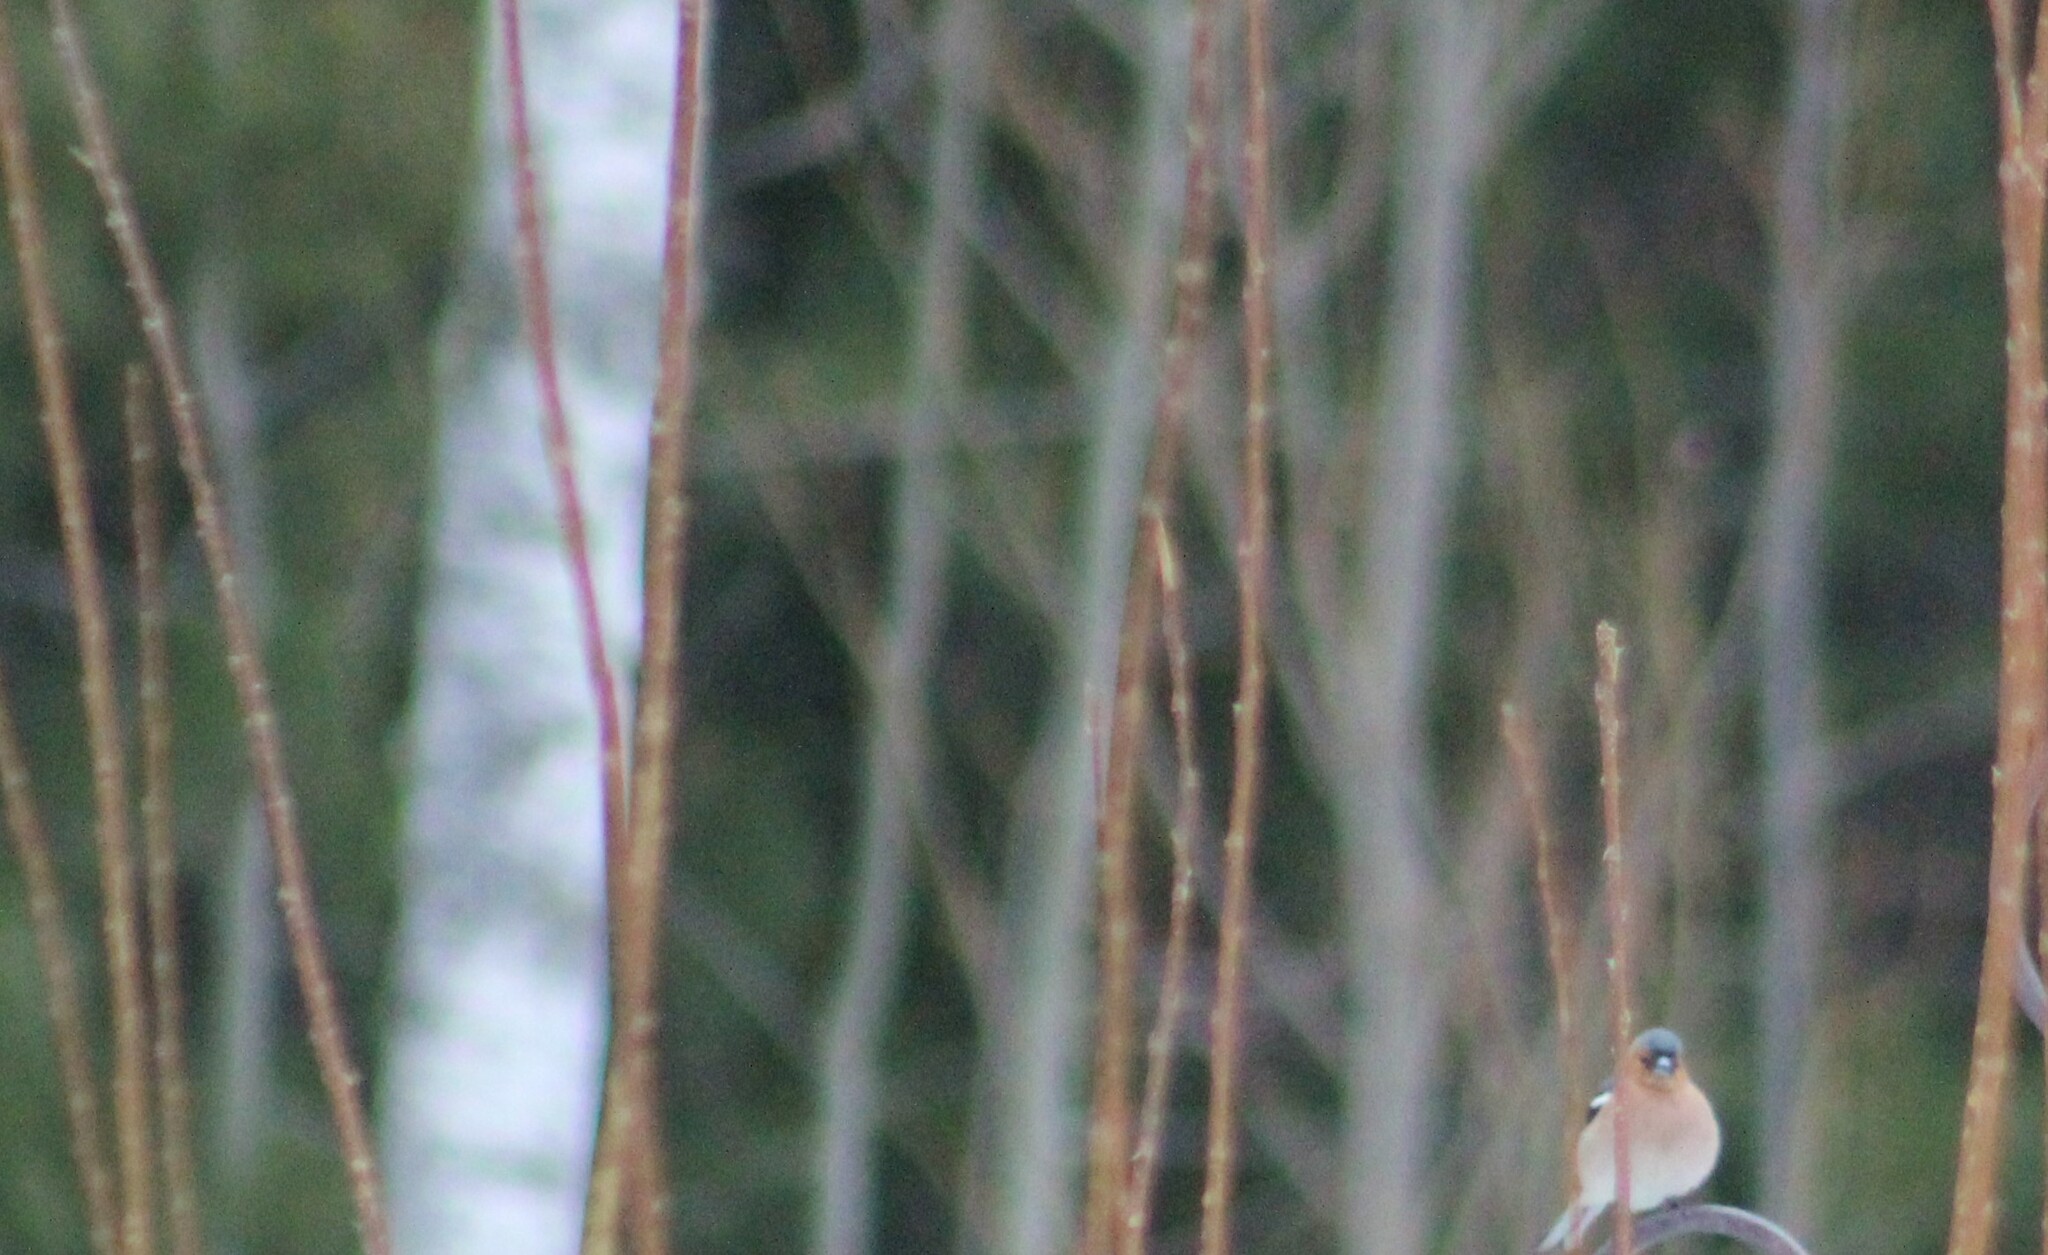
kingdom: Animalia
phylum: Chordata
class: Aves
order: Passeriformes
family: Fringillidae
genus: Fringilla
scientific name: Fringilla coelebs
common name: Common chaffinch
